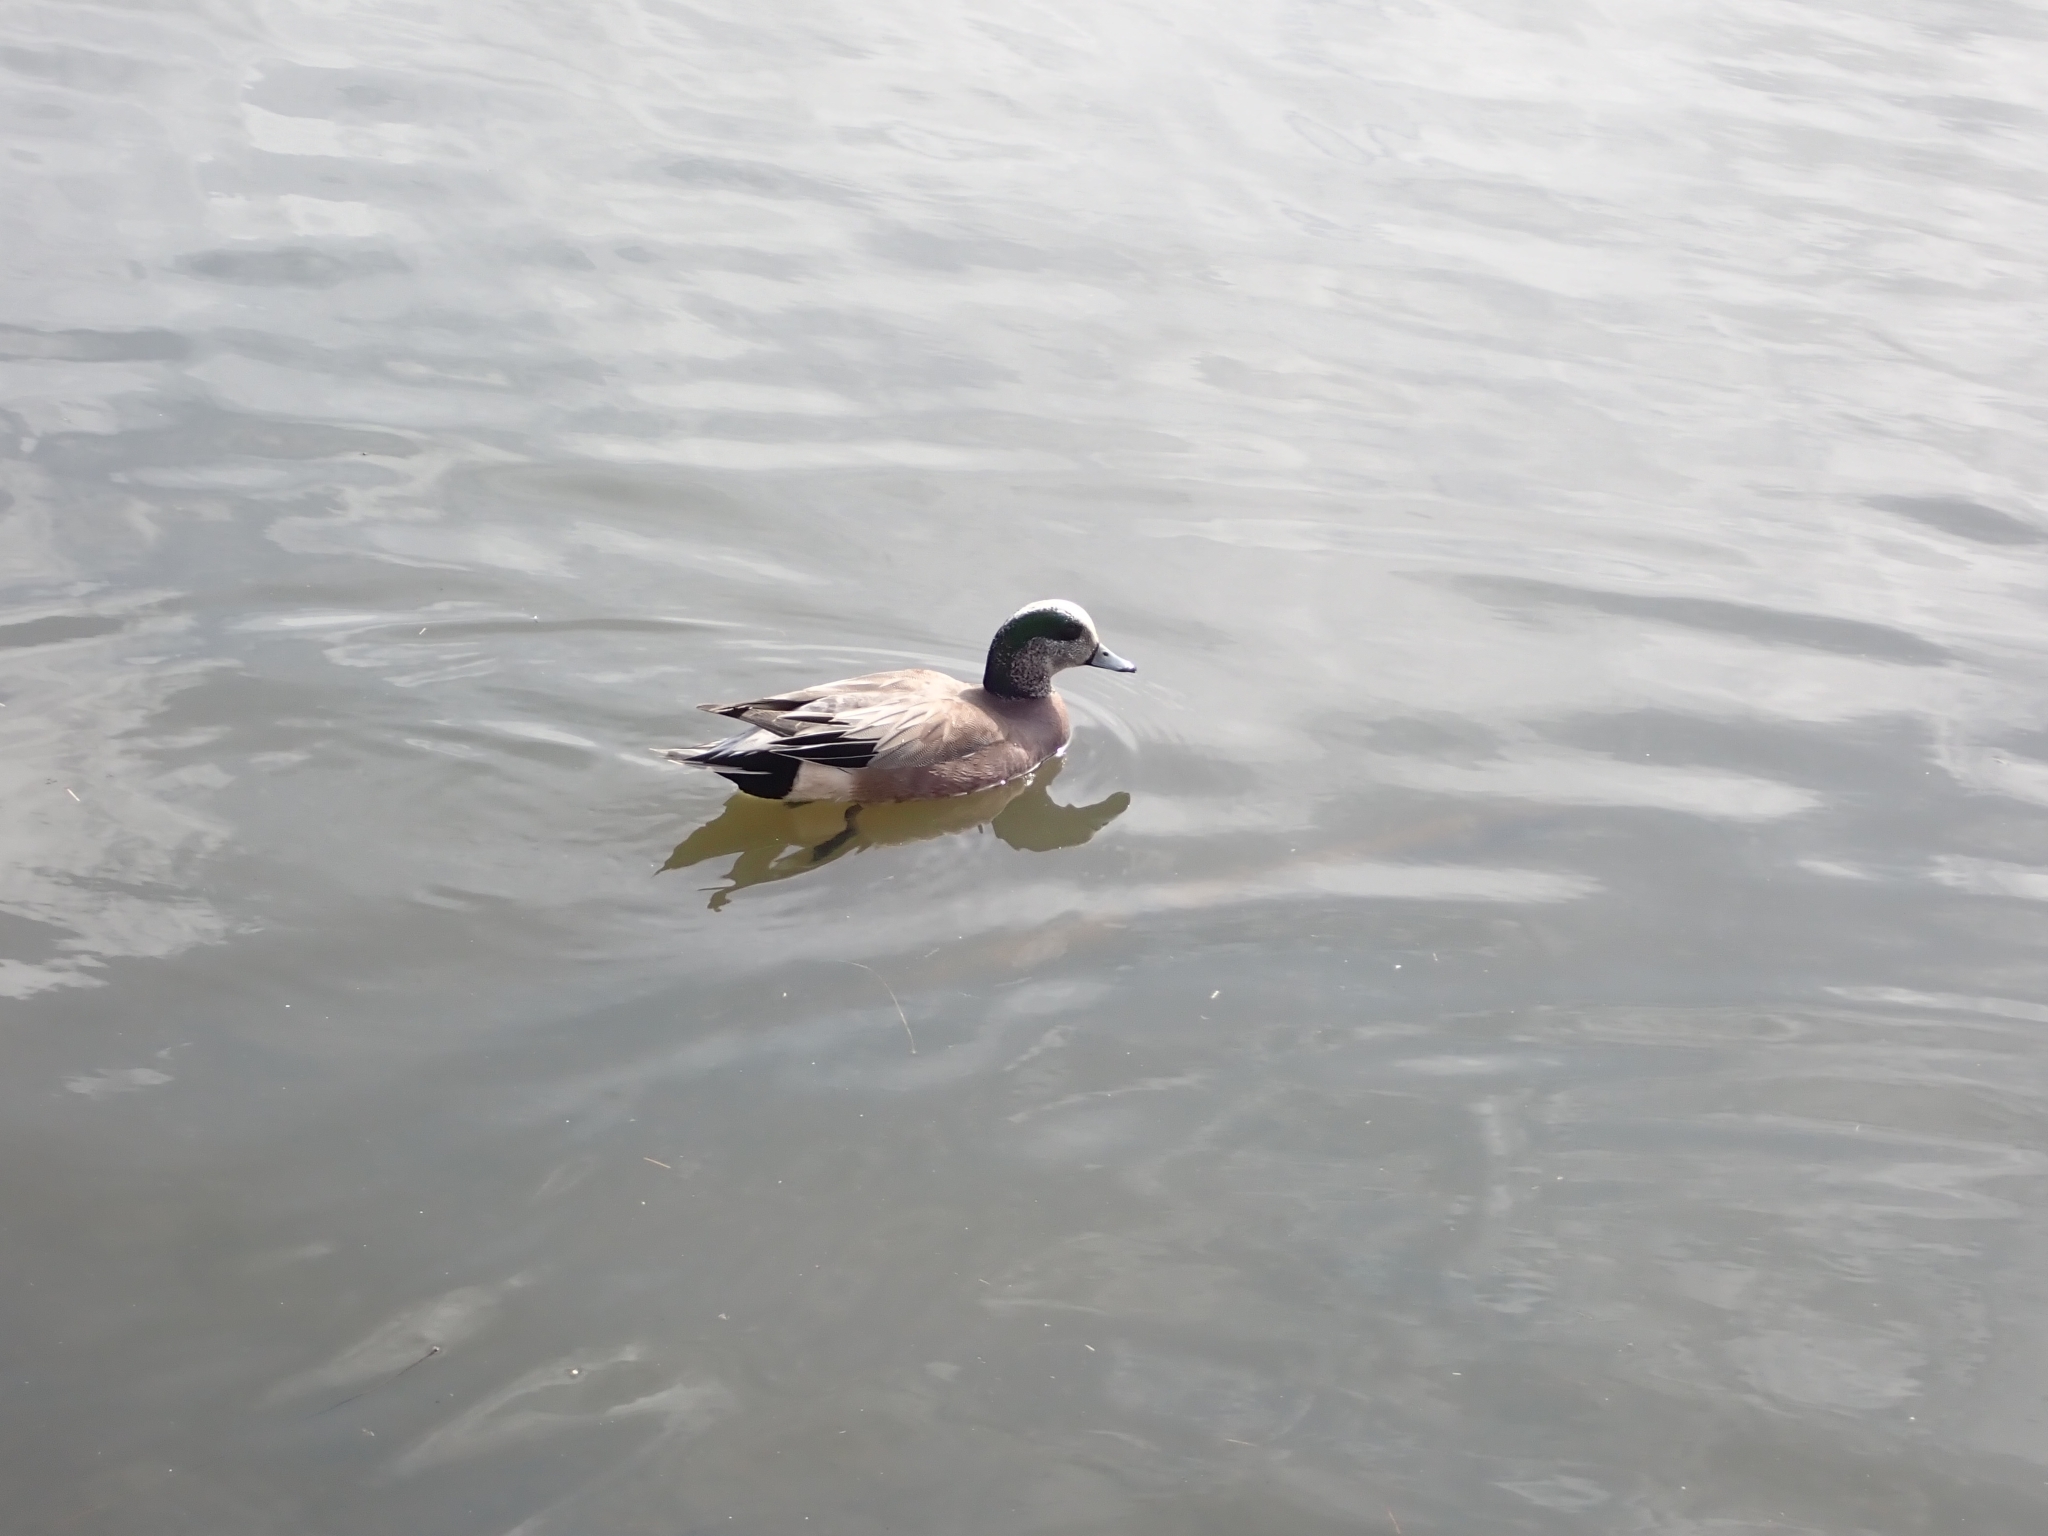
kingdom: Animalia
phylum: Chordata
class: Aves
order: Anseriformes
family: Anatidae
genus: Mareca
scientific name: Mareca americana
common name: American wigeon
